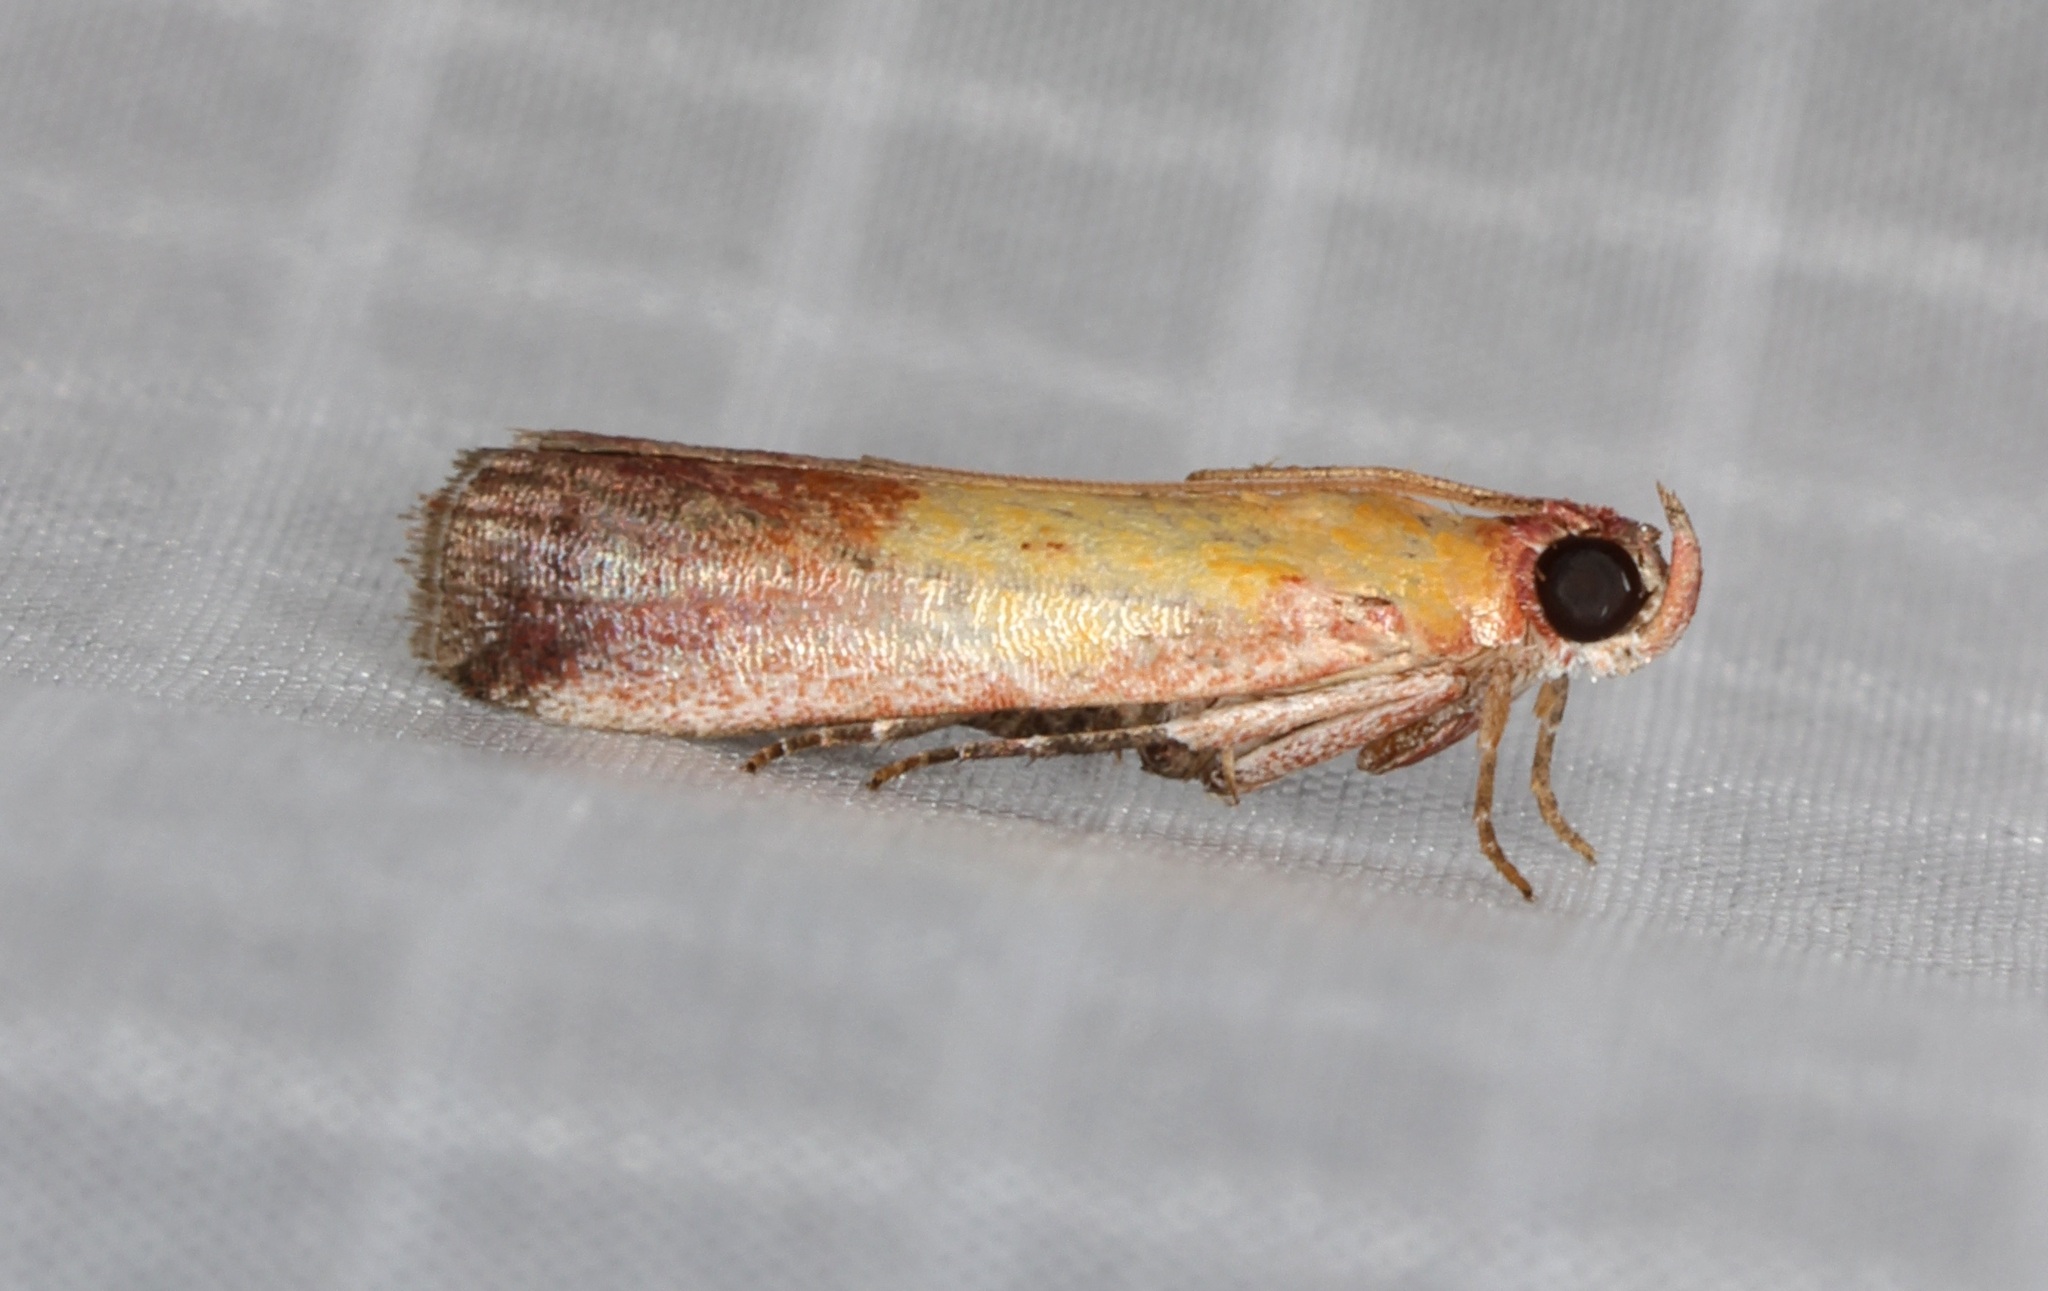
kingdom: Animalia
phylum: Arthropoda
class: Insecta
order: Lepidoptera
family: Pyralidae
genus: Piesmopoda
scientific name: Piesmopoda
